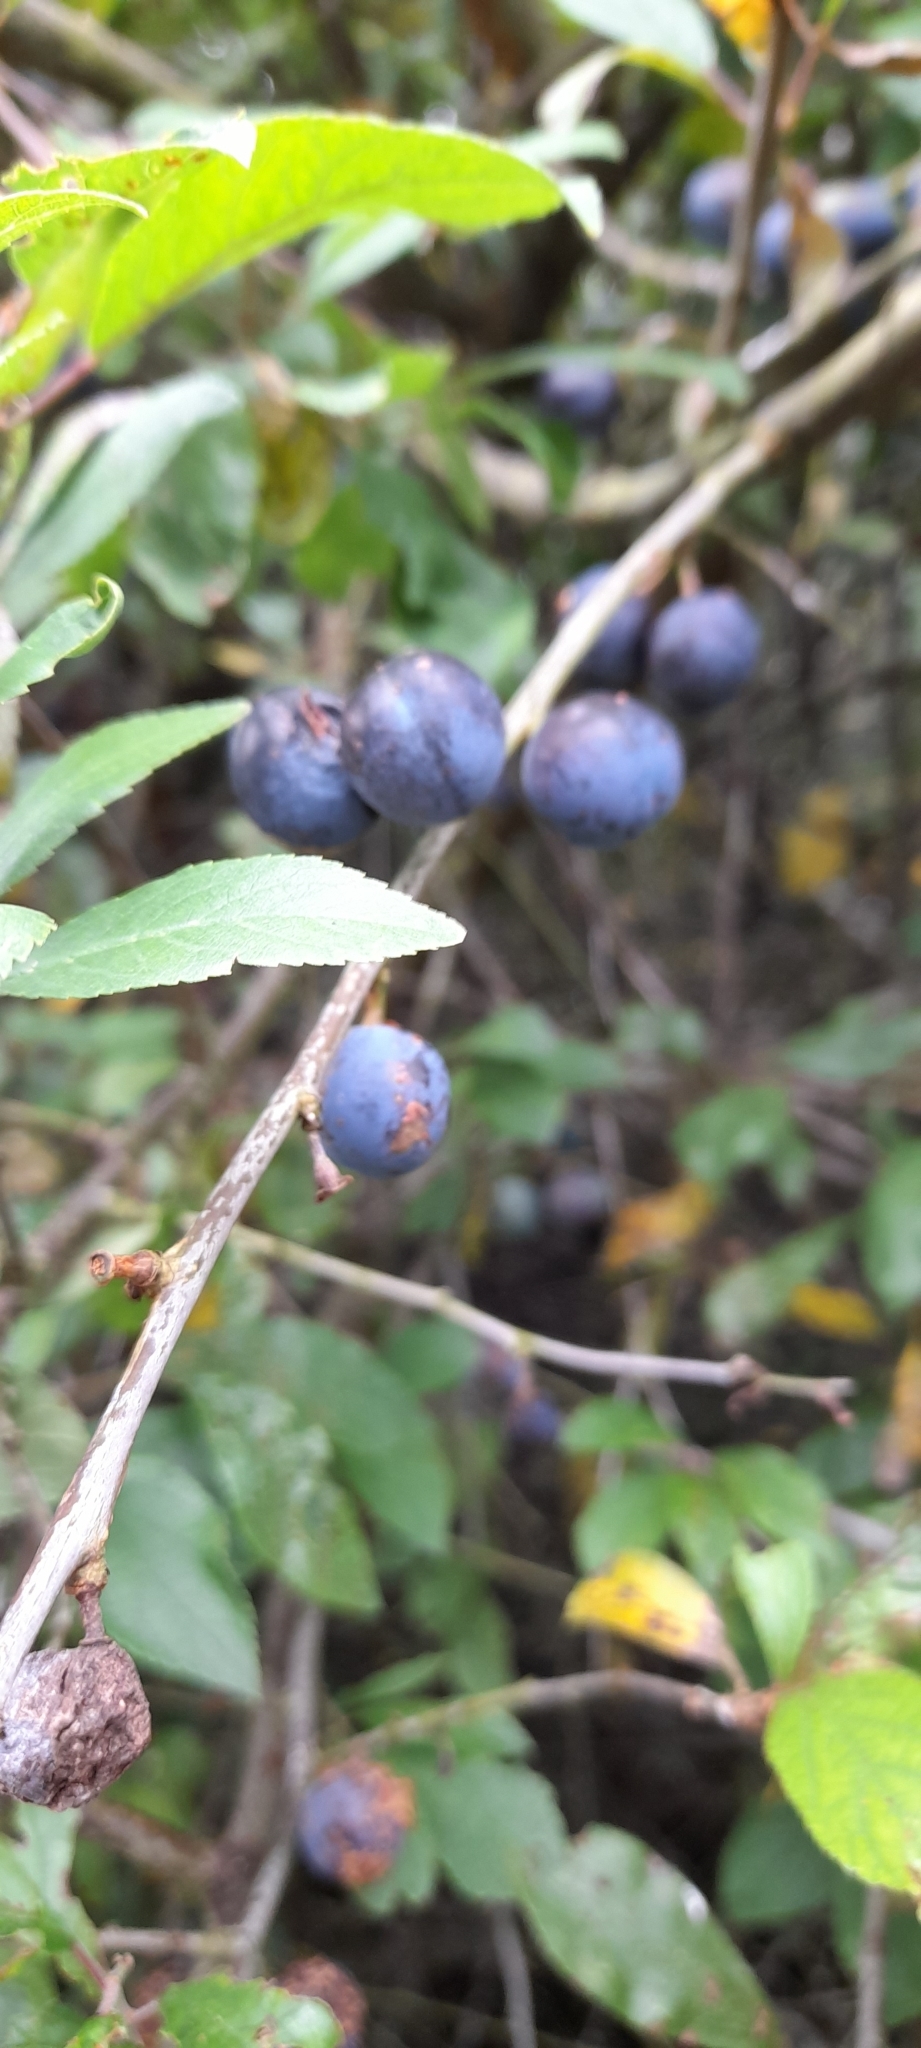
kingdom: Plantae
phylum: Tracheophyta
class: Magnoliopsida
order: Rosales
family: Rosaceae
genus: Prunus
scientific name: Prunus spinosa
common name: Blackthorn
